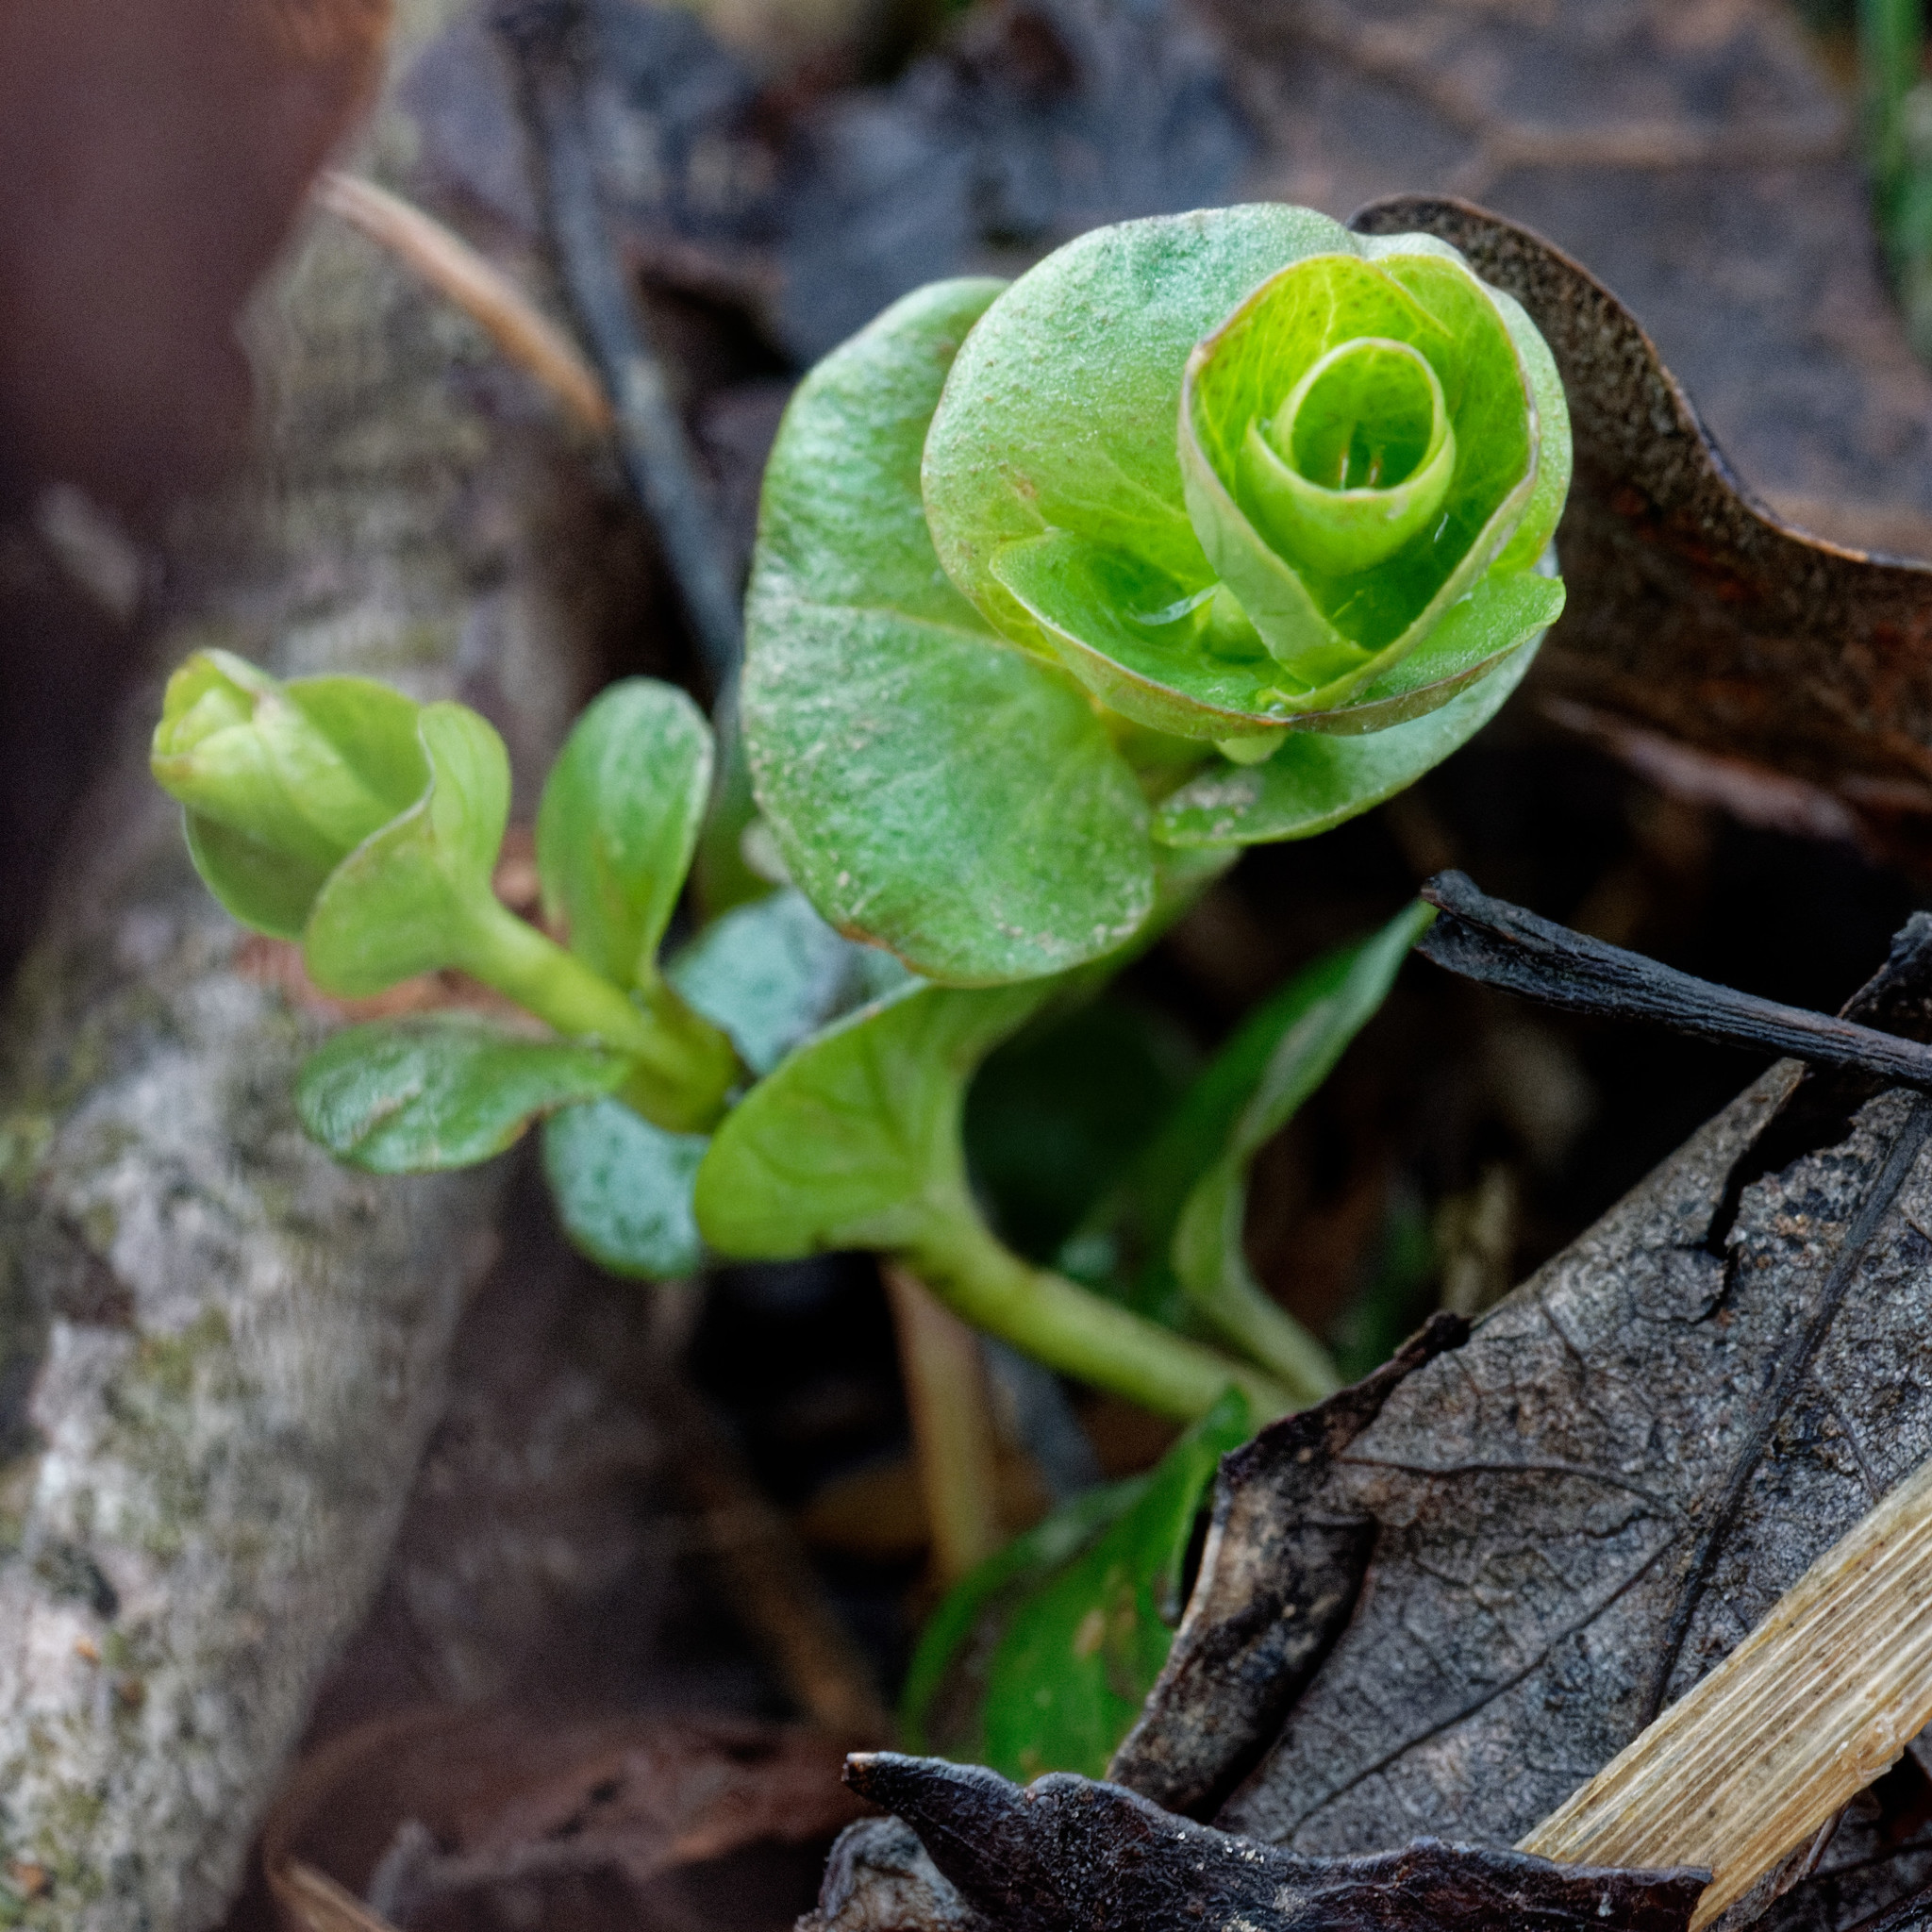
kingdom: Plantae
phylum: Tracheophyta
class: Magnoliopsida
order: Ericales
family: Primulaceae
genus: Lysimachia
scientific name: Lysimachia nummularia
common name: Moneywort
